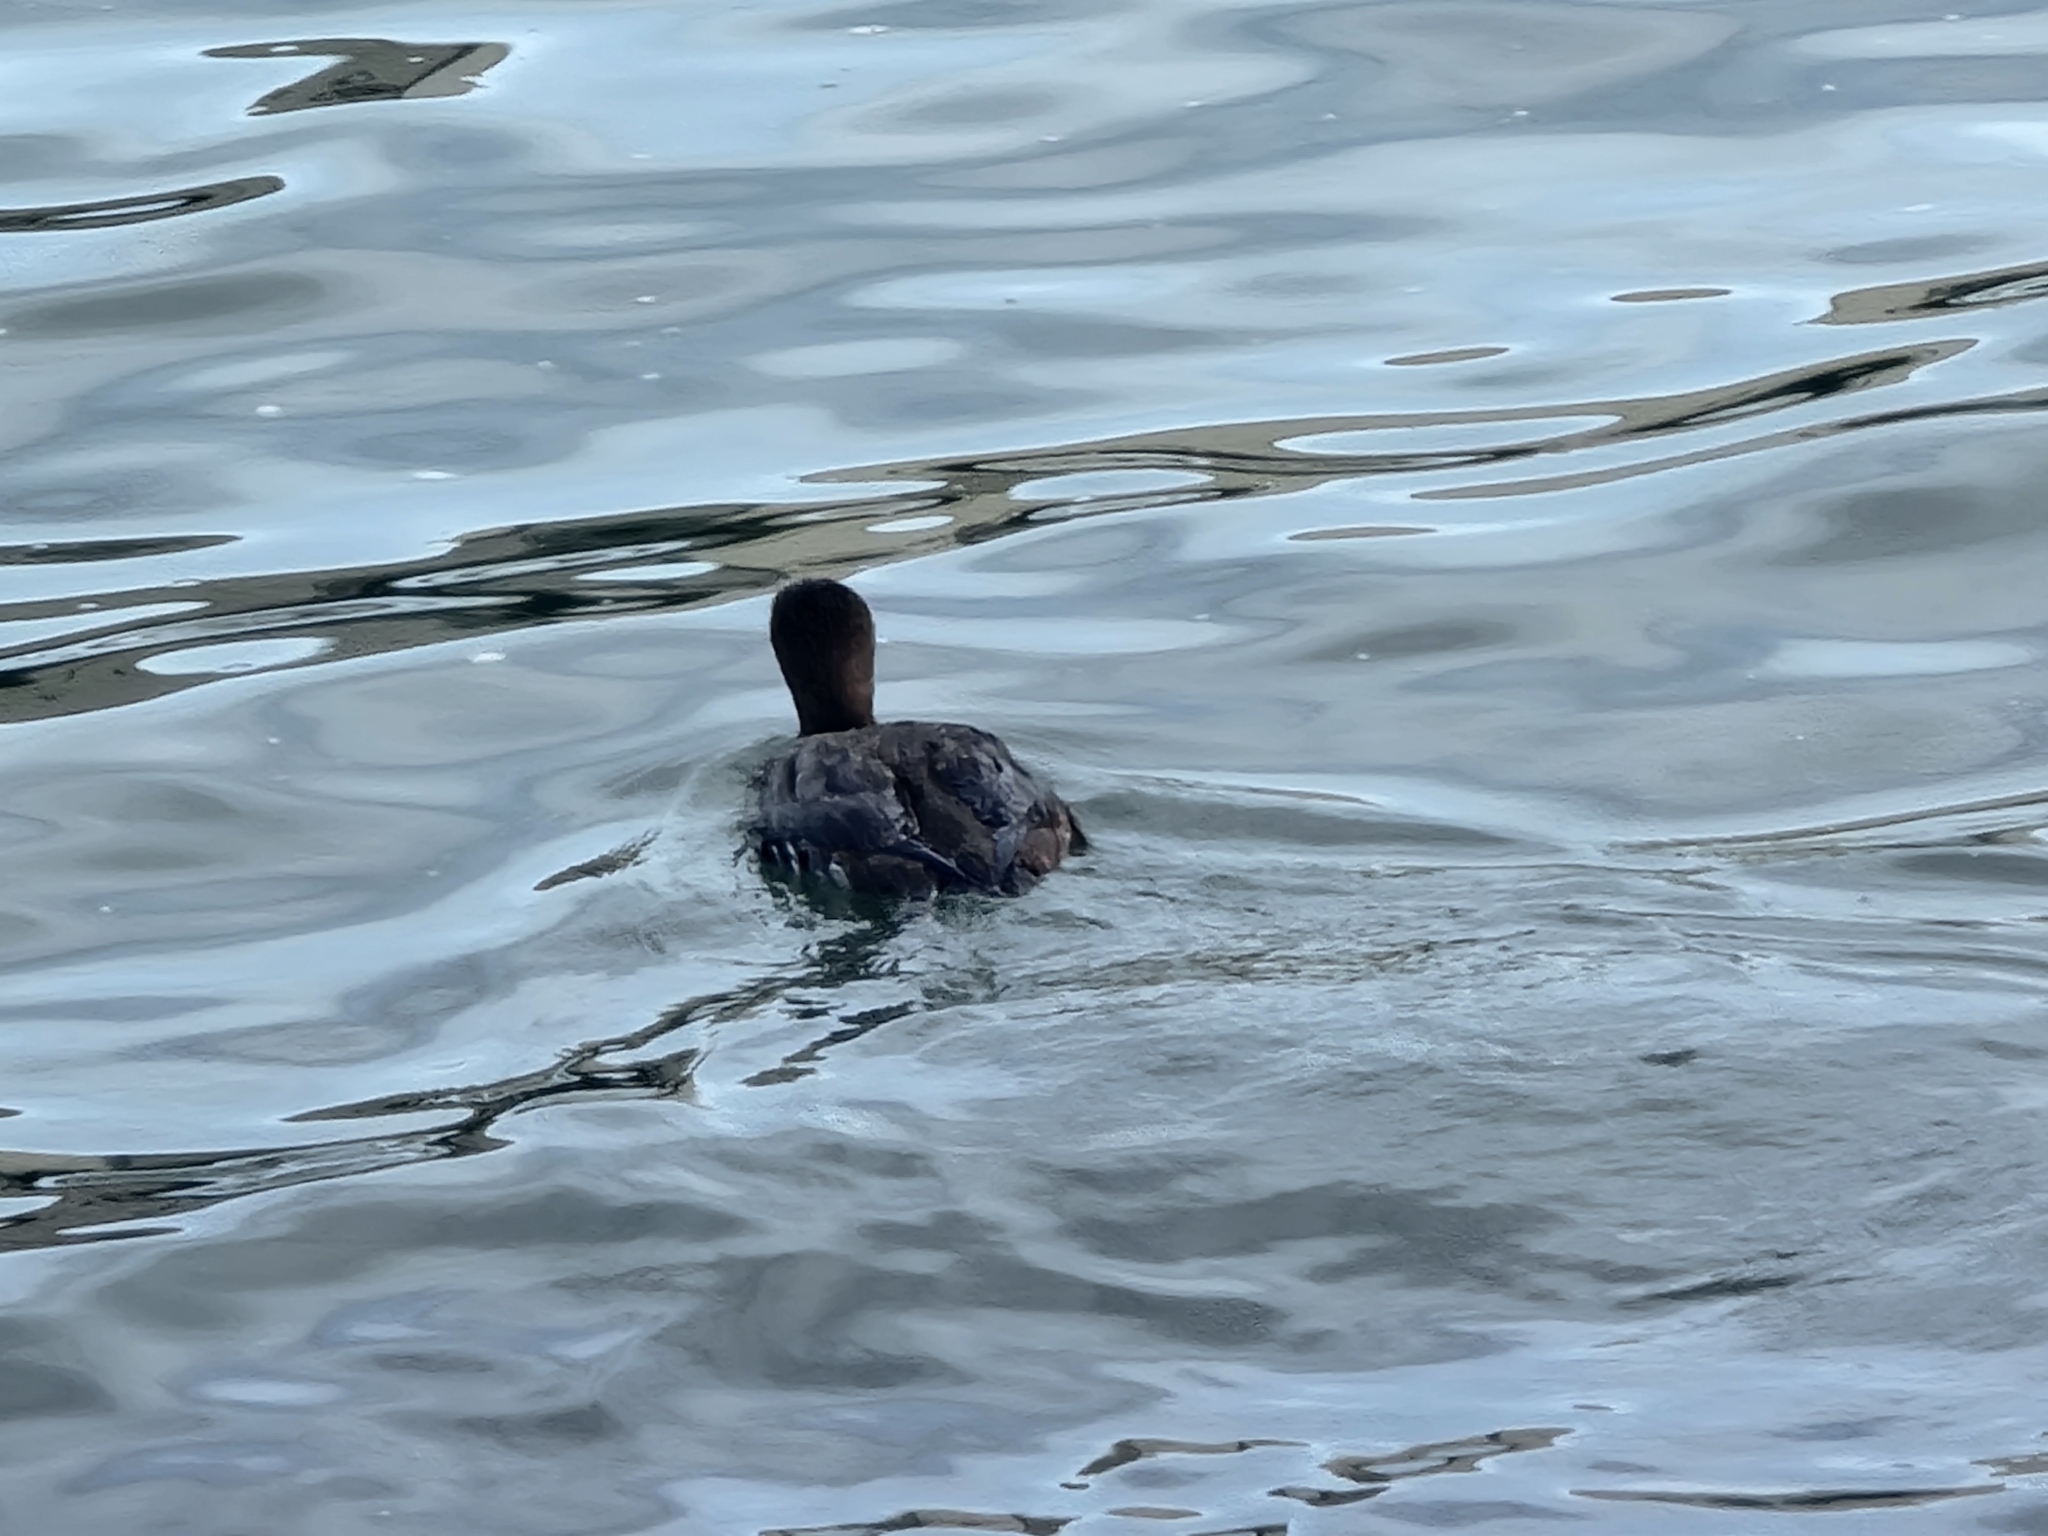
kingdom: Animalia
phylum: Chordata
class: Aves
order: Gaviiformes
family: Gaviidae
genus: Gavia
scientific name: Gavia immer
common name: Common loon
